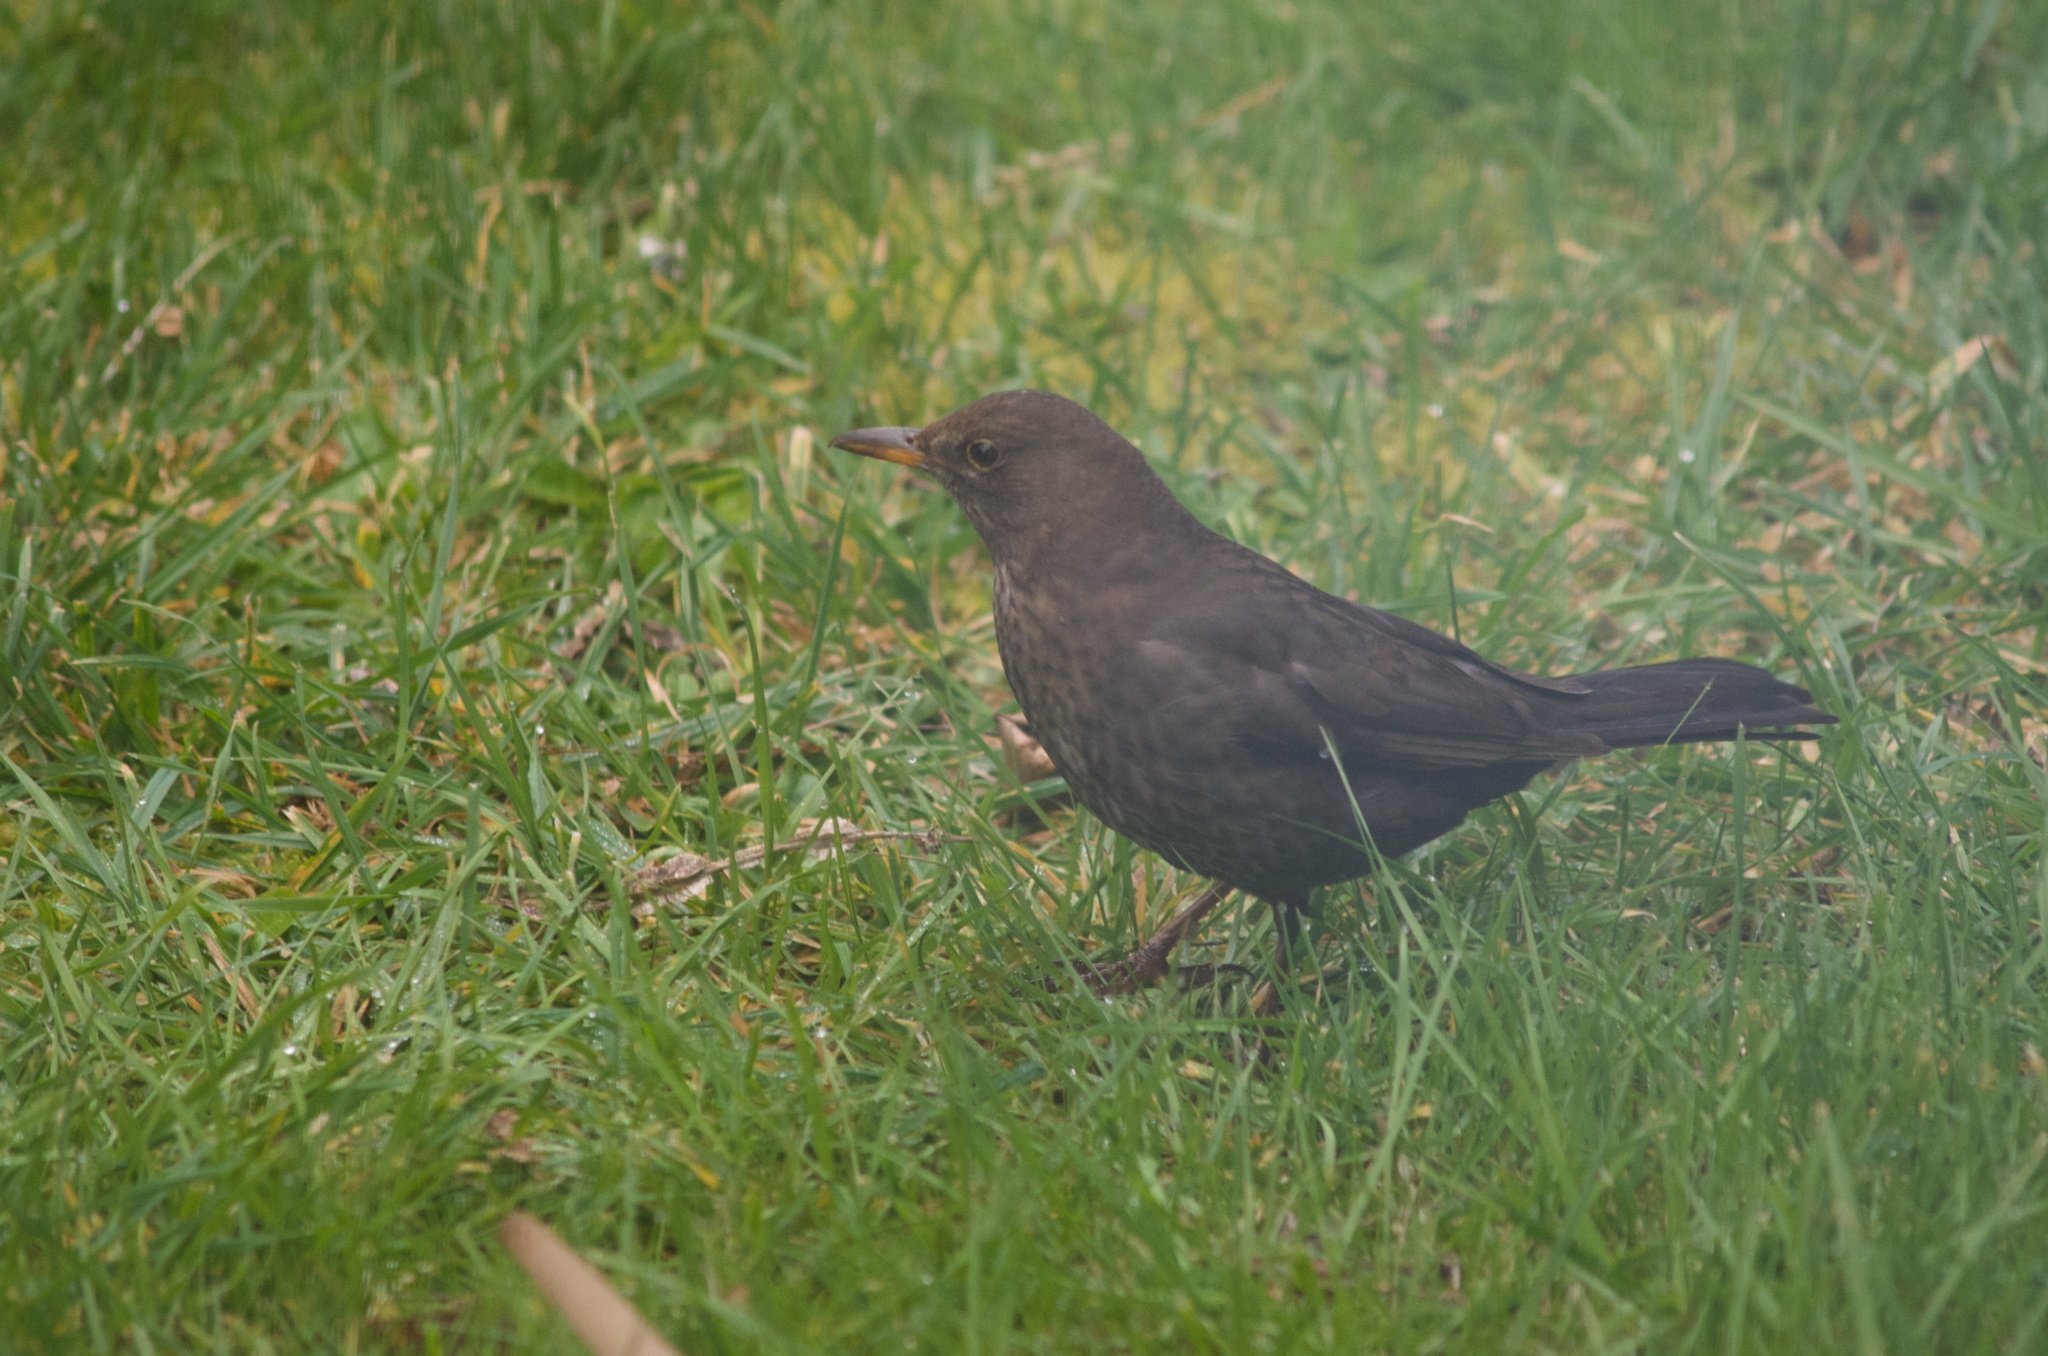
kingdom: Animalia
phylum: Chordata
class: Aves
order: Passeriformes
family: Turdidae
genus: Turdus
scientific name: Turdus merula
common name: Common blackbird
